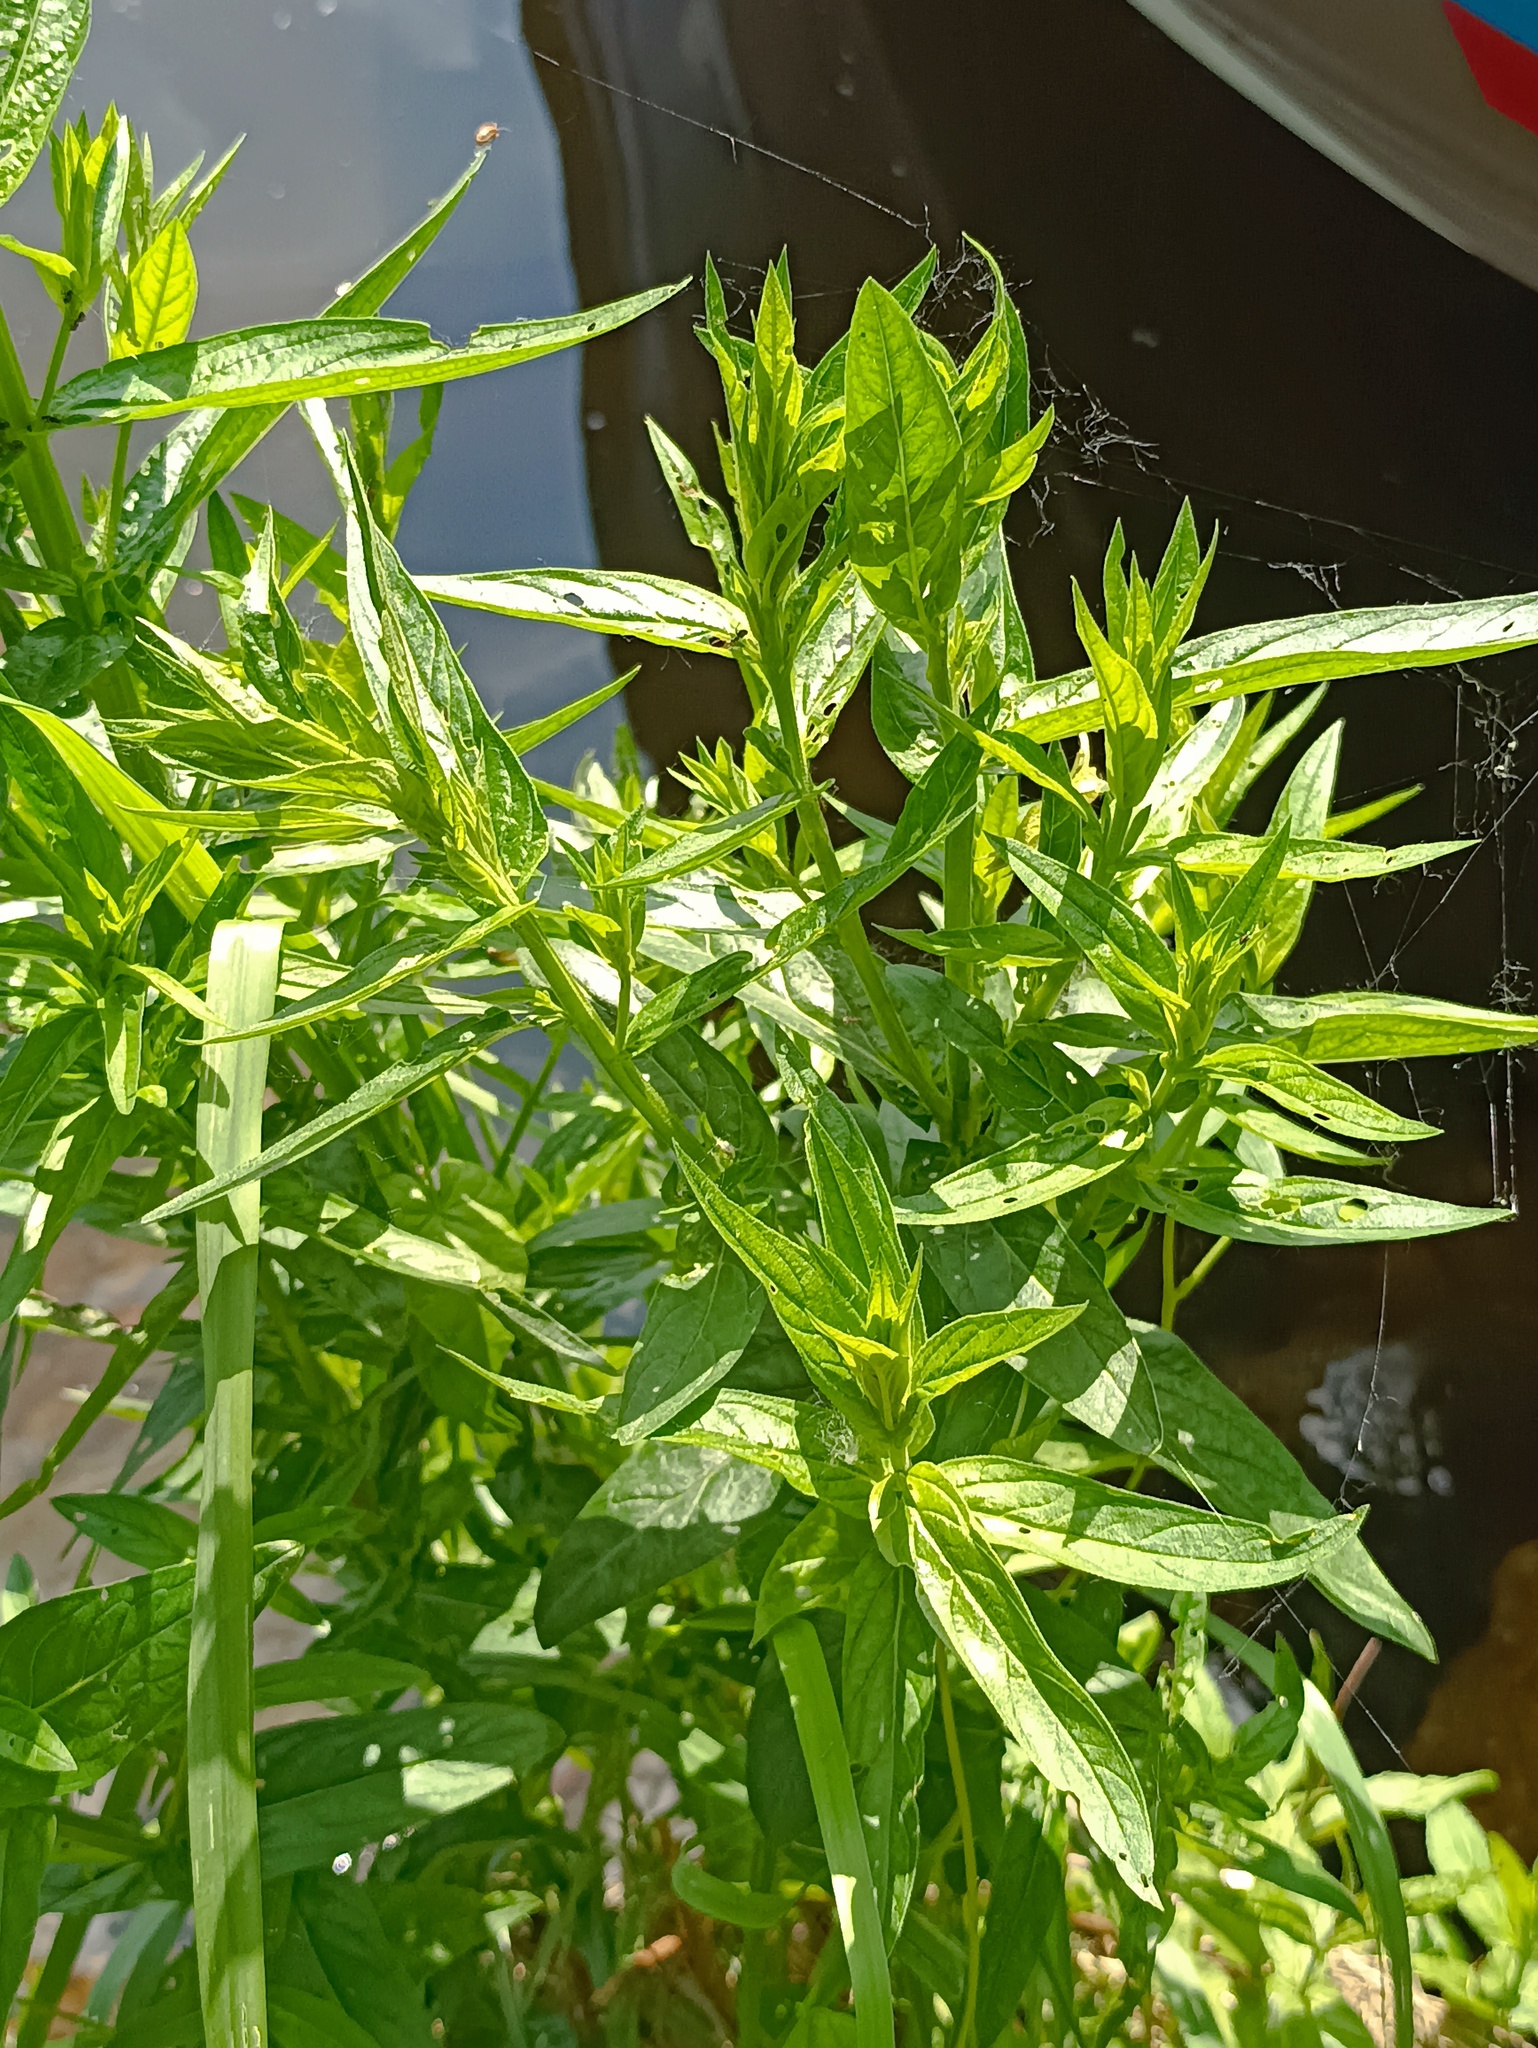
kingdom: Plantae
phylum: Tracheophyta
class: Magnoliopsida
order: Myrtales
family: Lythraceae
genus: Lythrum
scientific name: Lythrum salicaria
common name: Purple loosestrife
